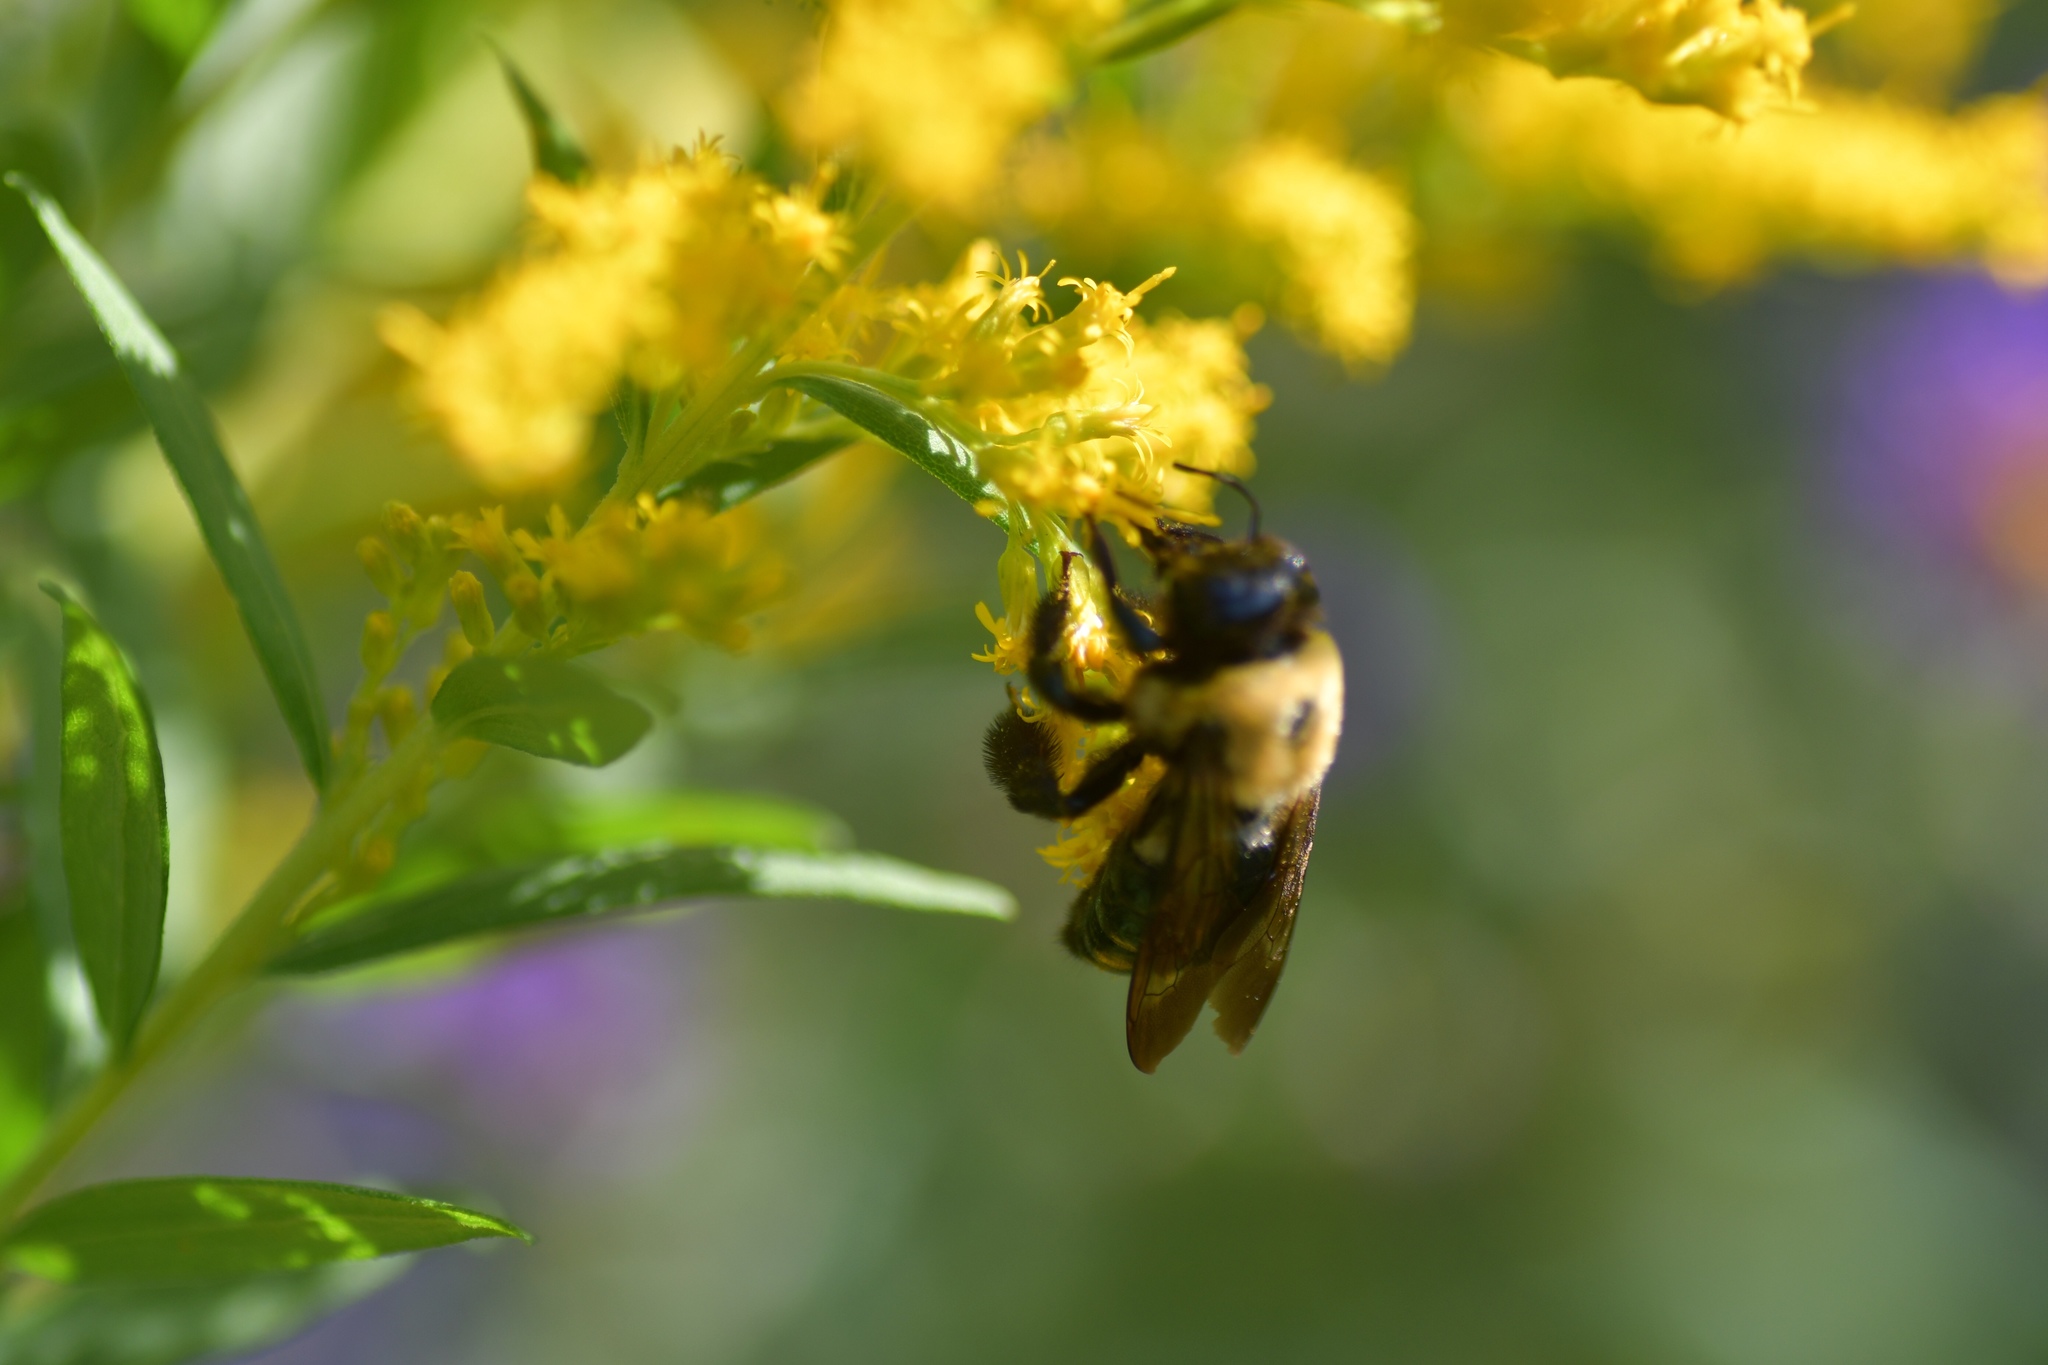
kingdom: Animalia
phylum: Arthropoda
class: Insecta
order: Hymenoptera
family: Apidae
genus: Xylocopa
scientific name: Xylocopa virginica
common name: Carpenter bee
